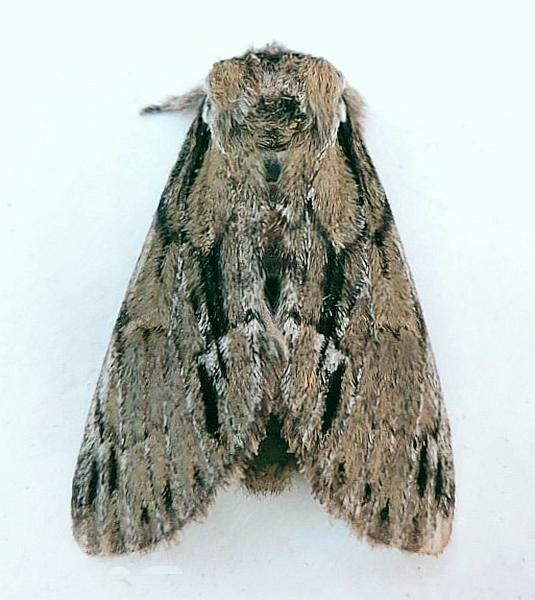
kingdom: Animalia
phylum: Arthropoda
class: Insecta
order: Lepidoptera
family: Notodontidae
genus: Paraeschra
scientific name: Paraeschra georgica
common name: Georgian prominent
